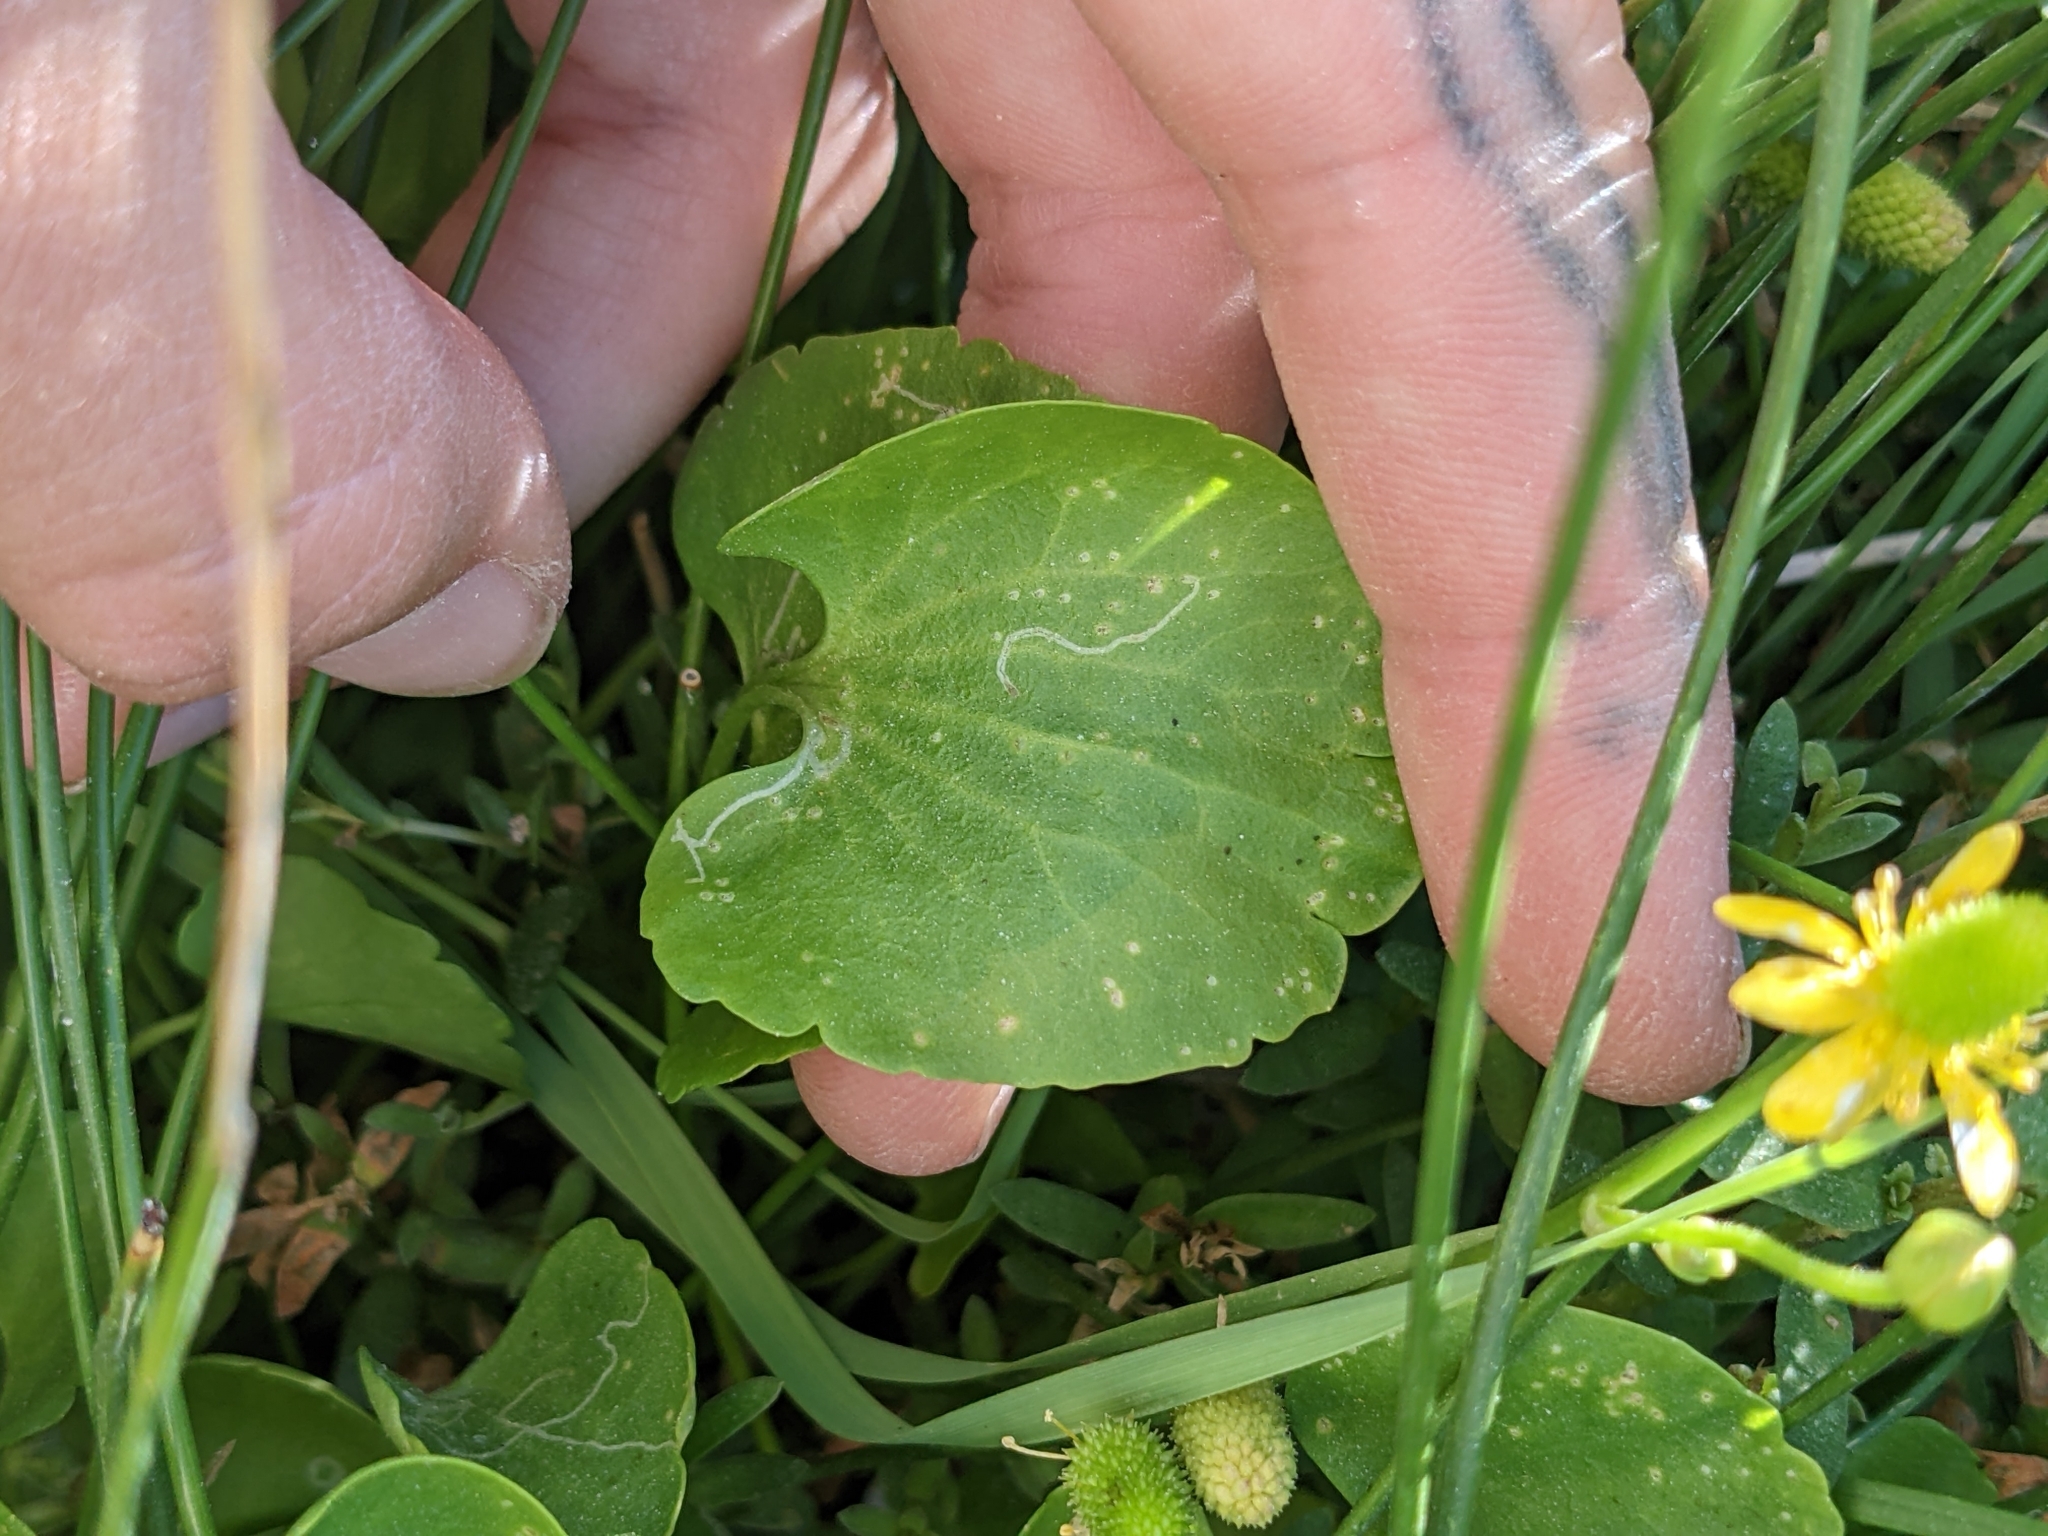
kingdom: Plantae
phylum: Tracheophyta
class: Magnoliopsida
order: Ranunculales
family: Ranunculaceae
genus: Halerpestes
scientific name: Halerpestes cymbalaria
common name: Seaside crowfoot
